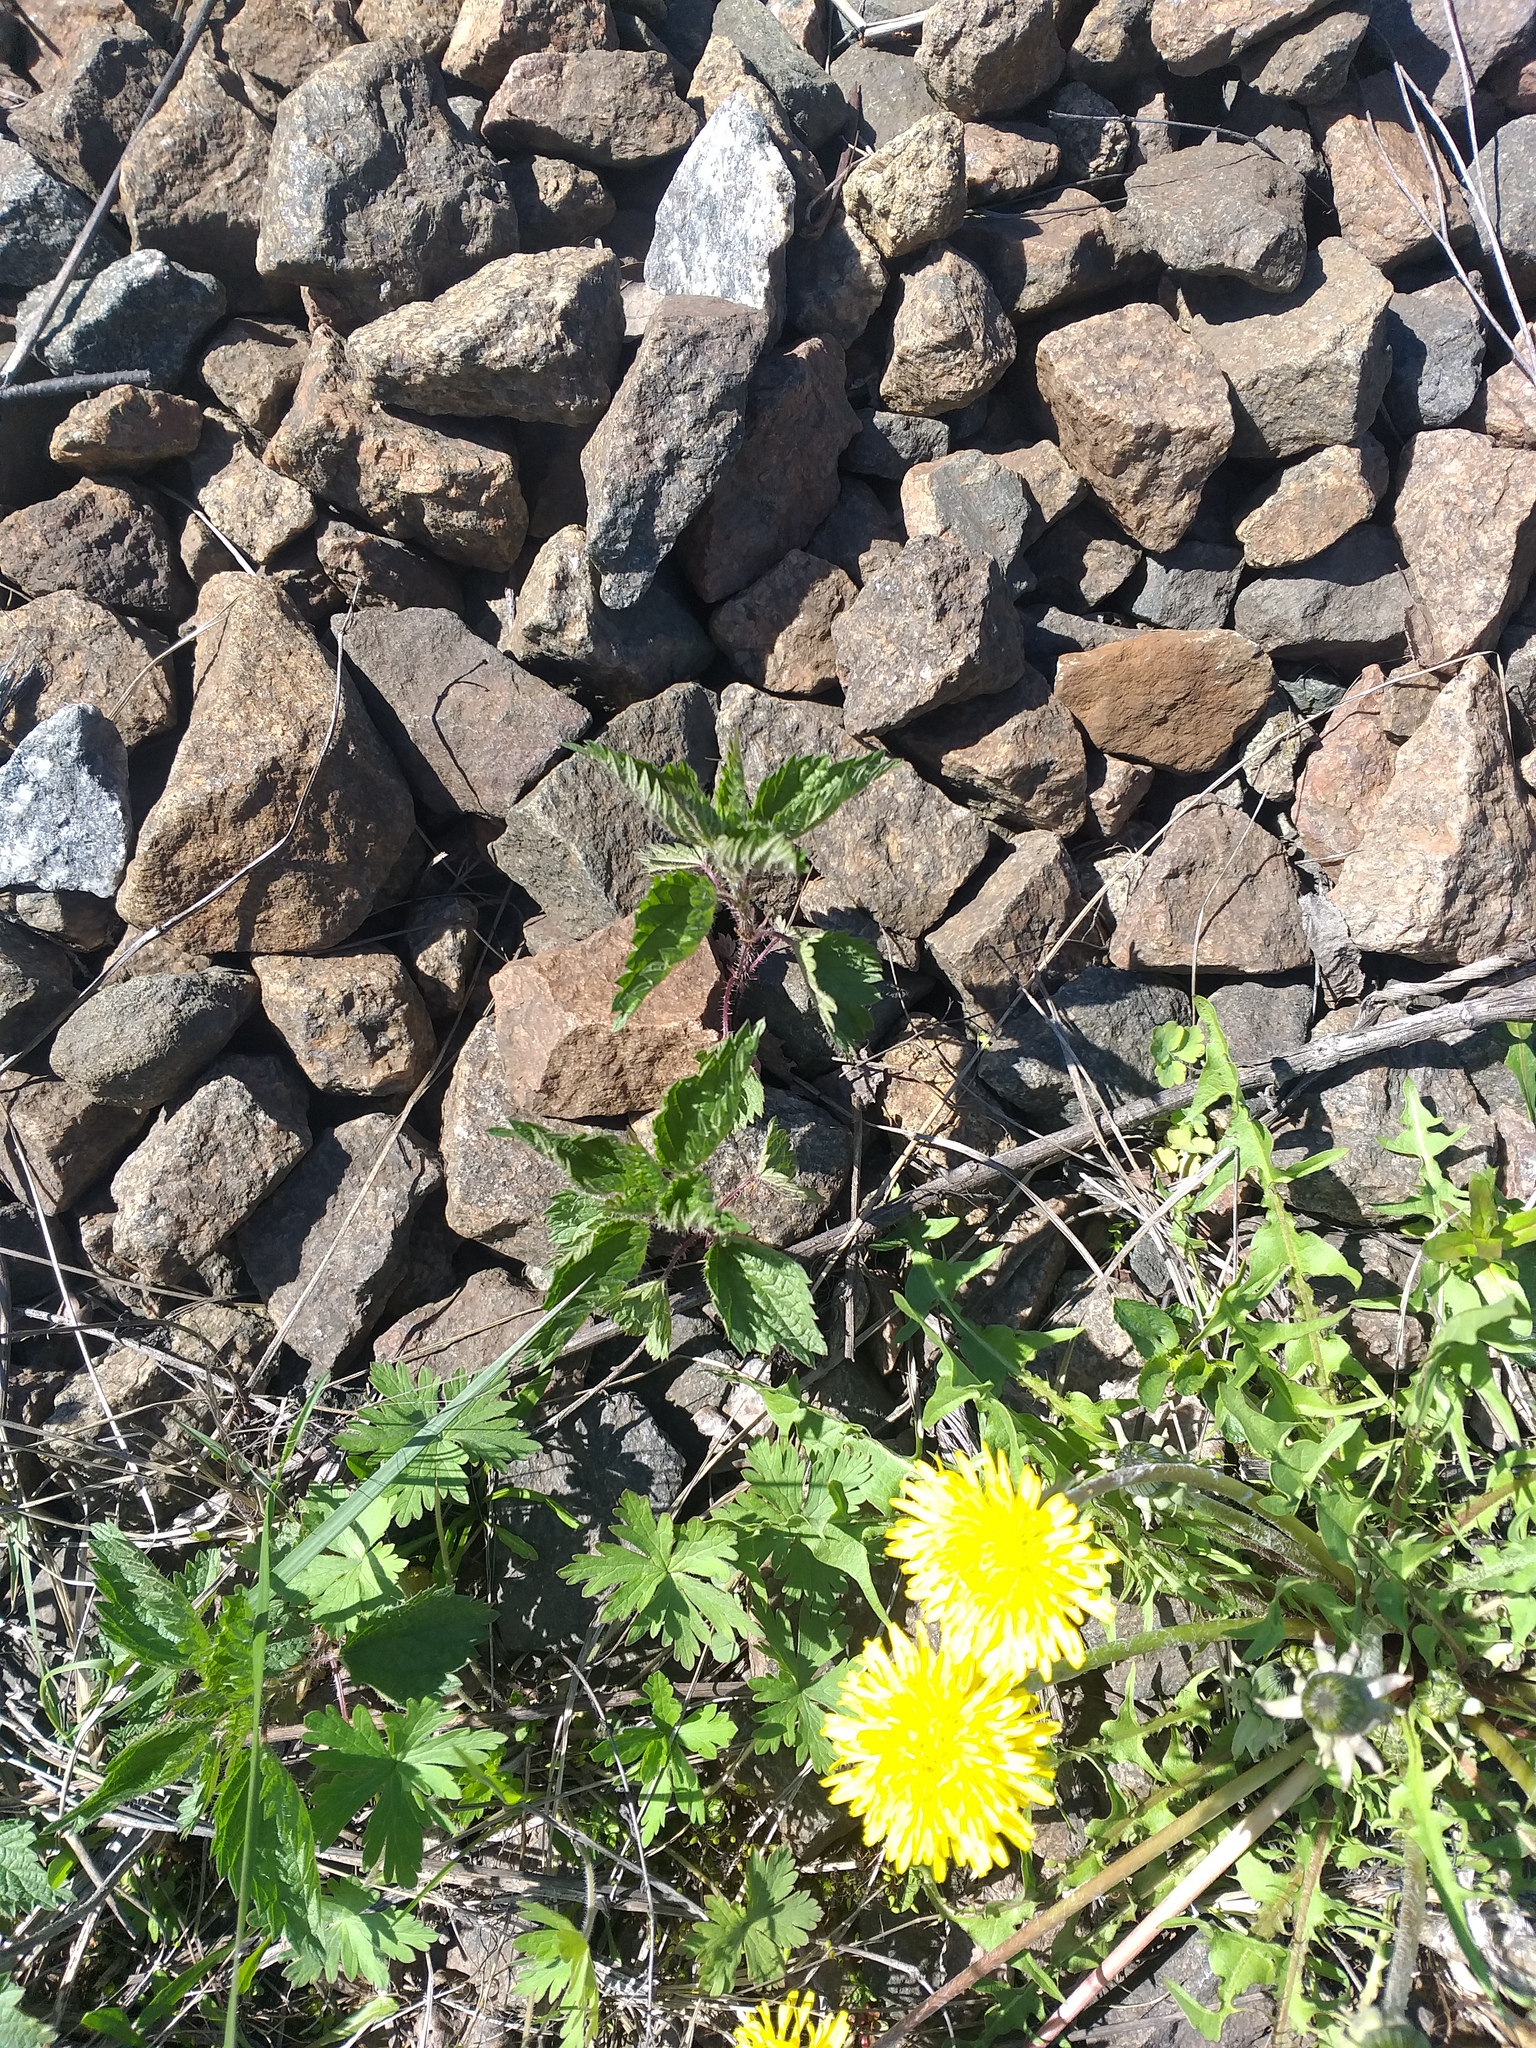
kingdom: Plantae
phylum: Tracheophyta
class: Magnoliopsida
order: Rosales
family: Urticaceae
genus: Urtica
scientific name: Urtica dioica
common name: Common nettle
